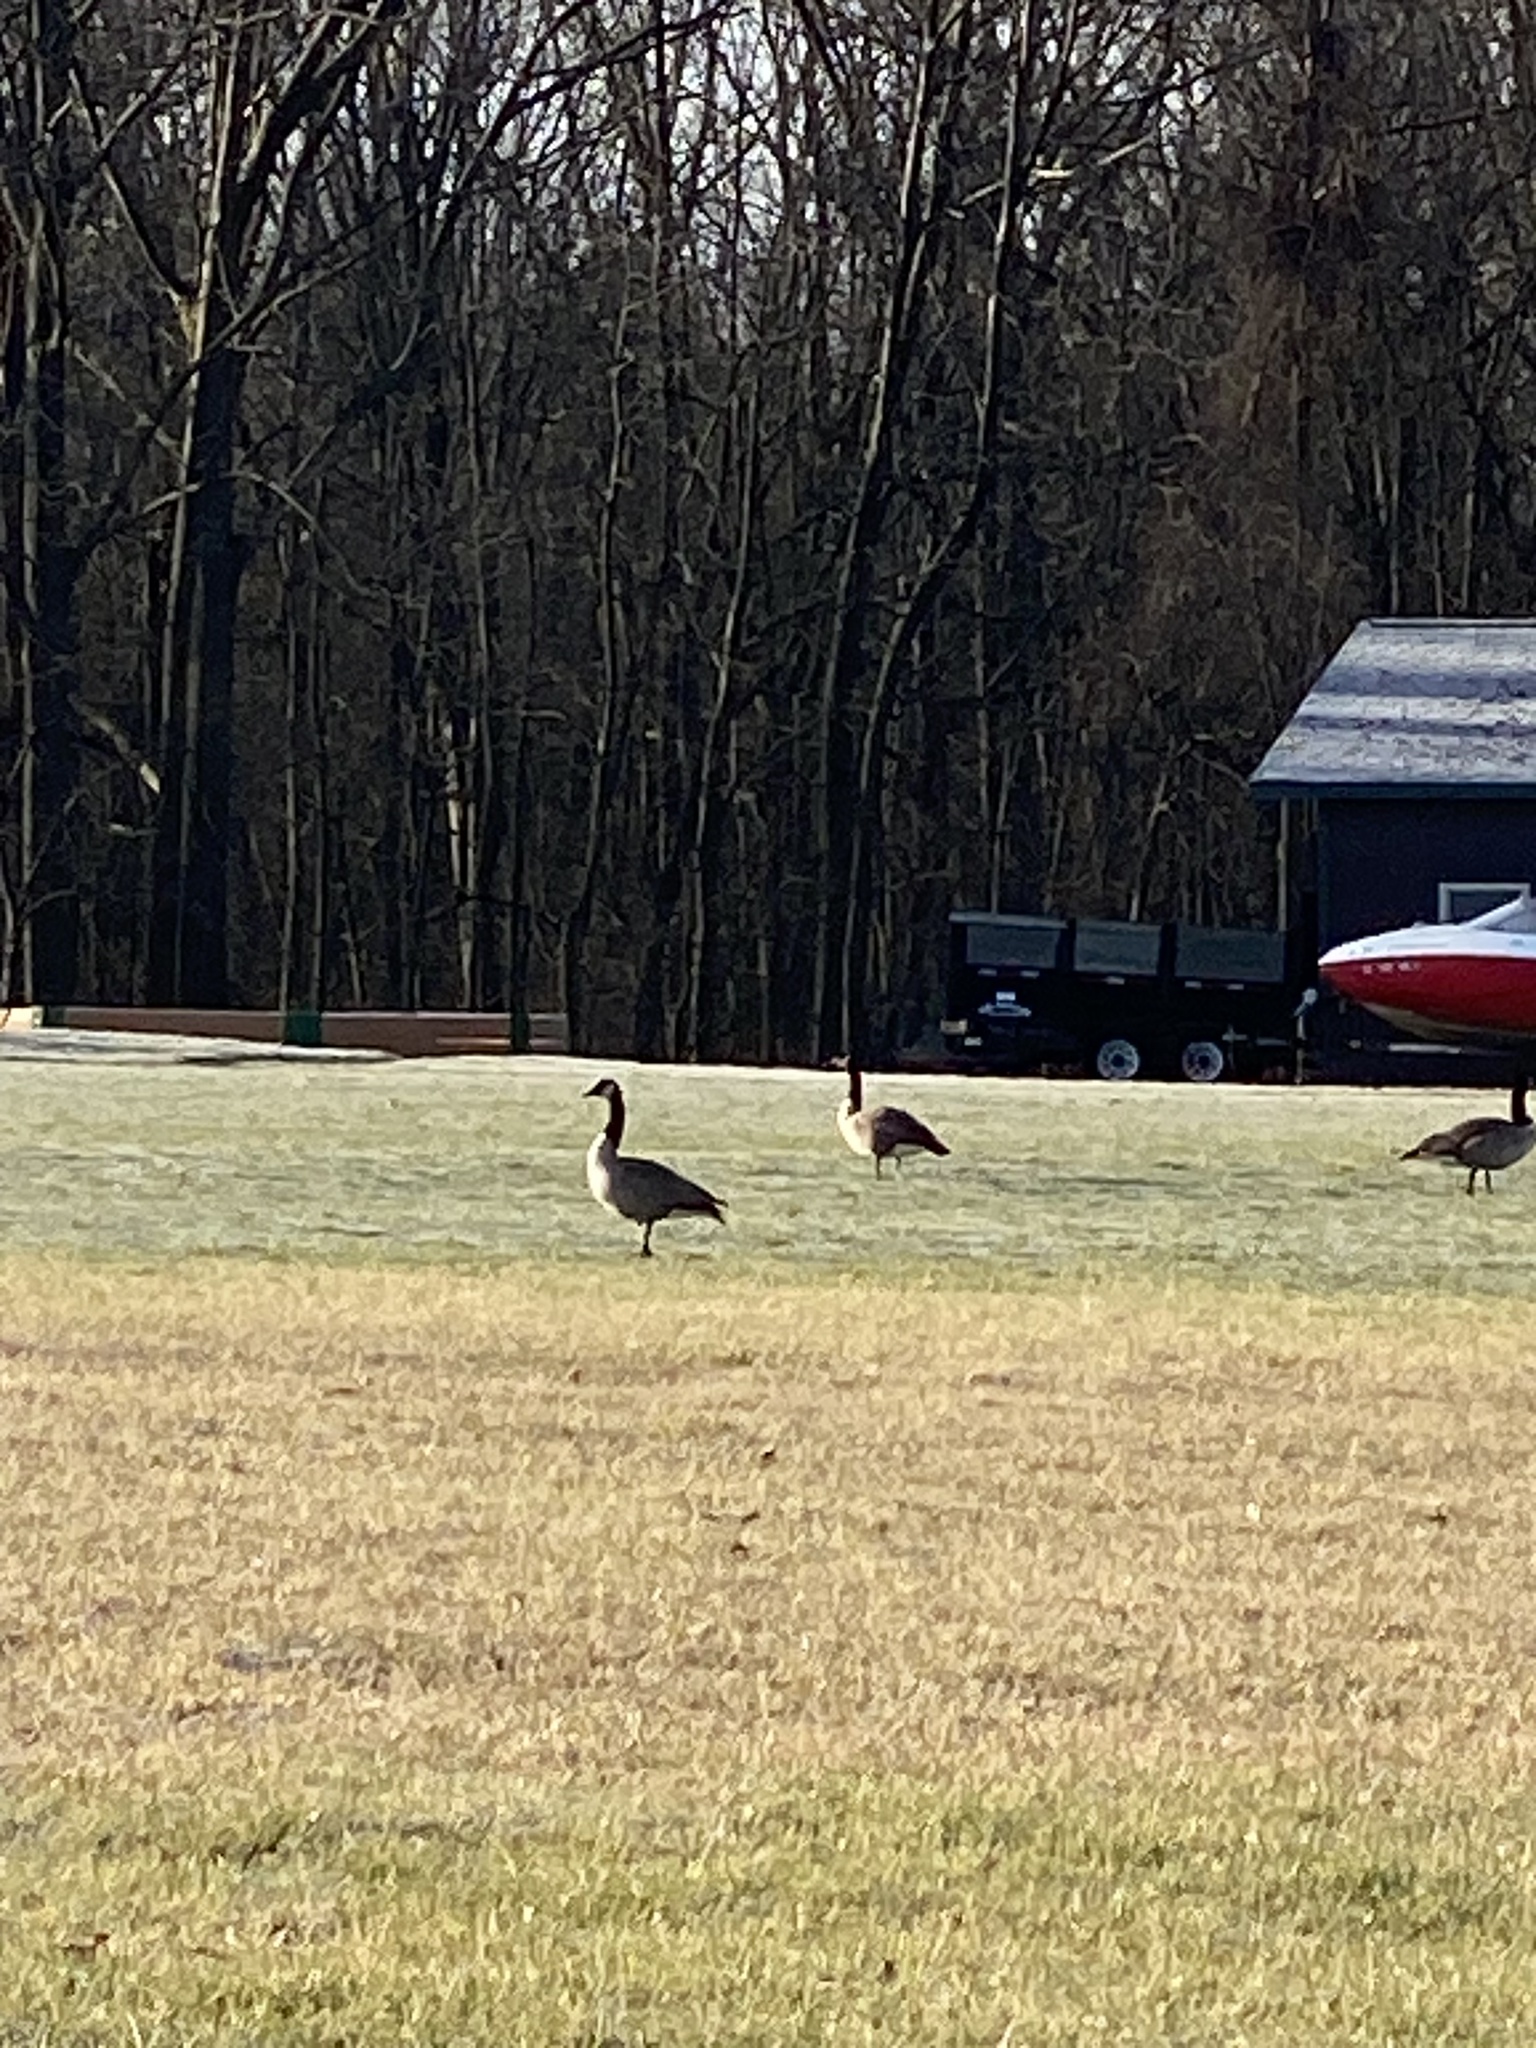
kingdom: Animalia
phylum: Chordata
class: Aves
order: Anseriformes
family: Anatidae
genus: Branta
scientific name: Branta canadensis
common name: Canada goose
